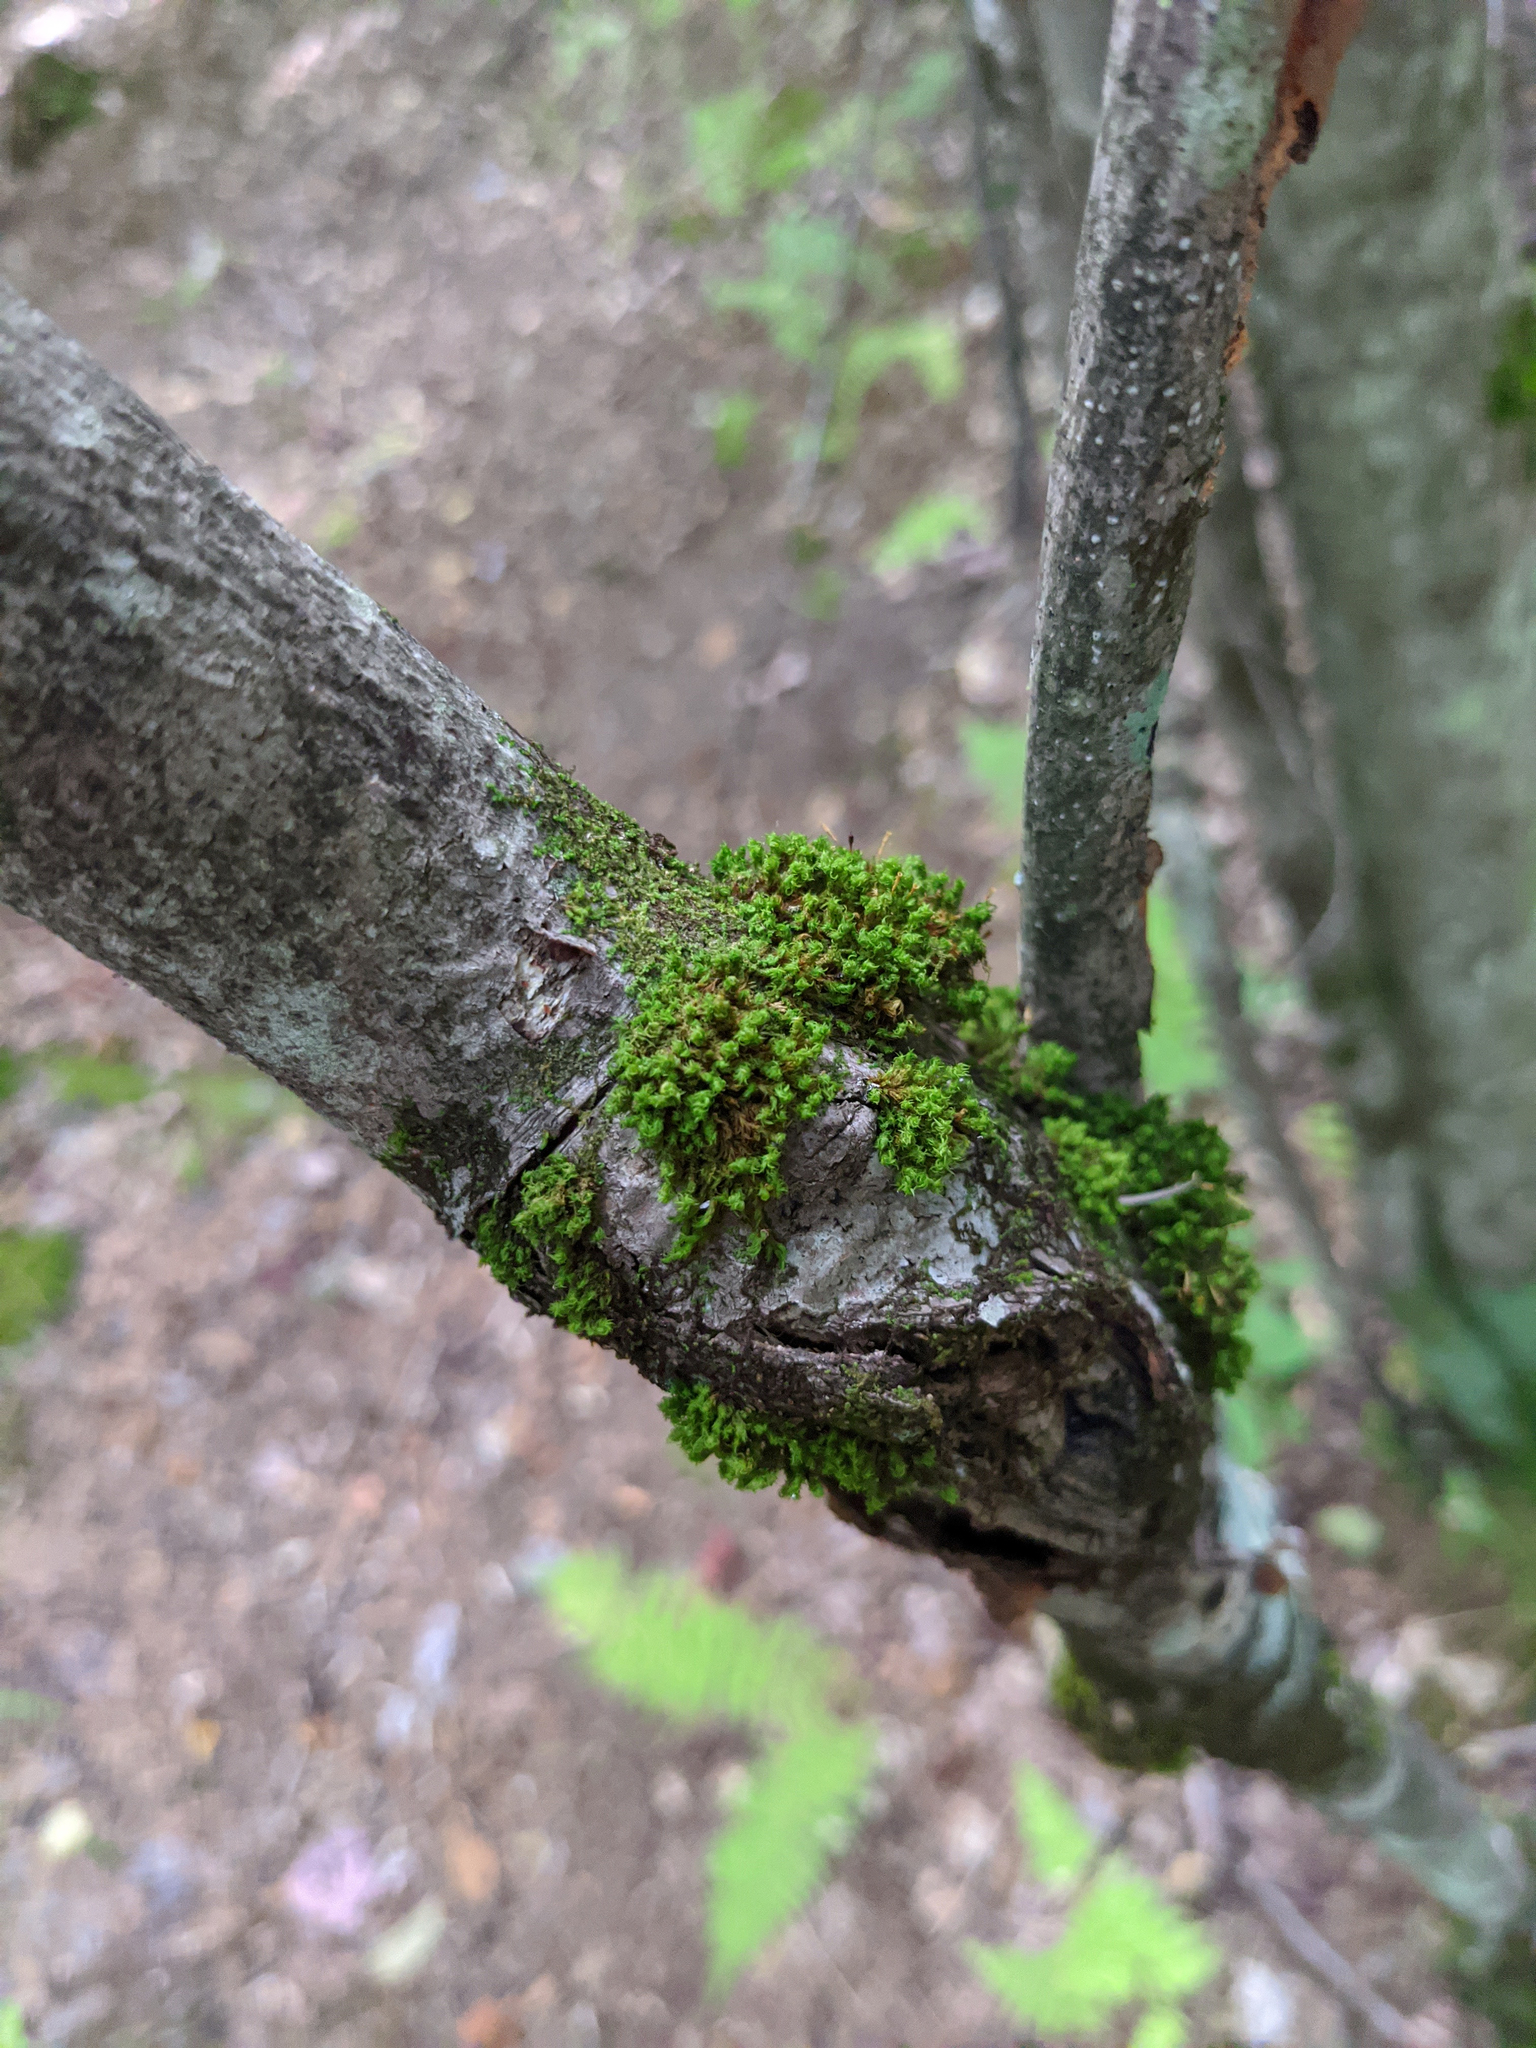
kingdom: Plantae
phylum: Bryophyta
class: Bryopsida
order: Orthotrichales
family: Orthotrichaceae
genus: Ulota
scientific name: Ulota crispa
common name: Crisped pincushion moss
